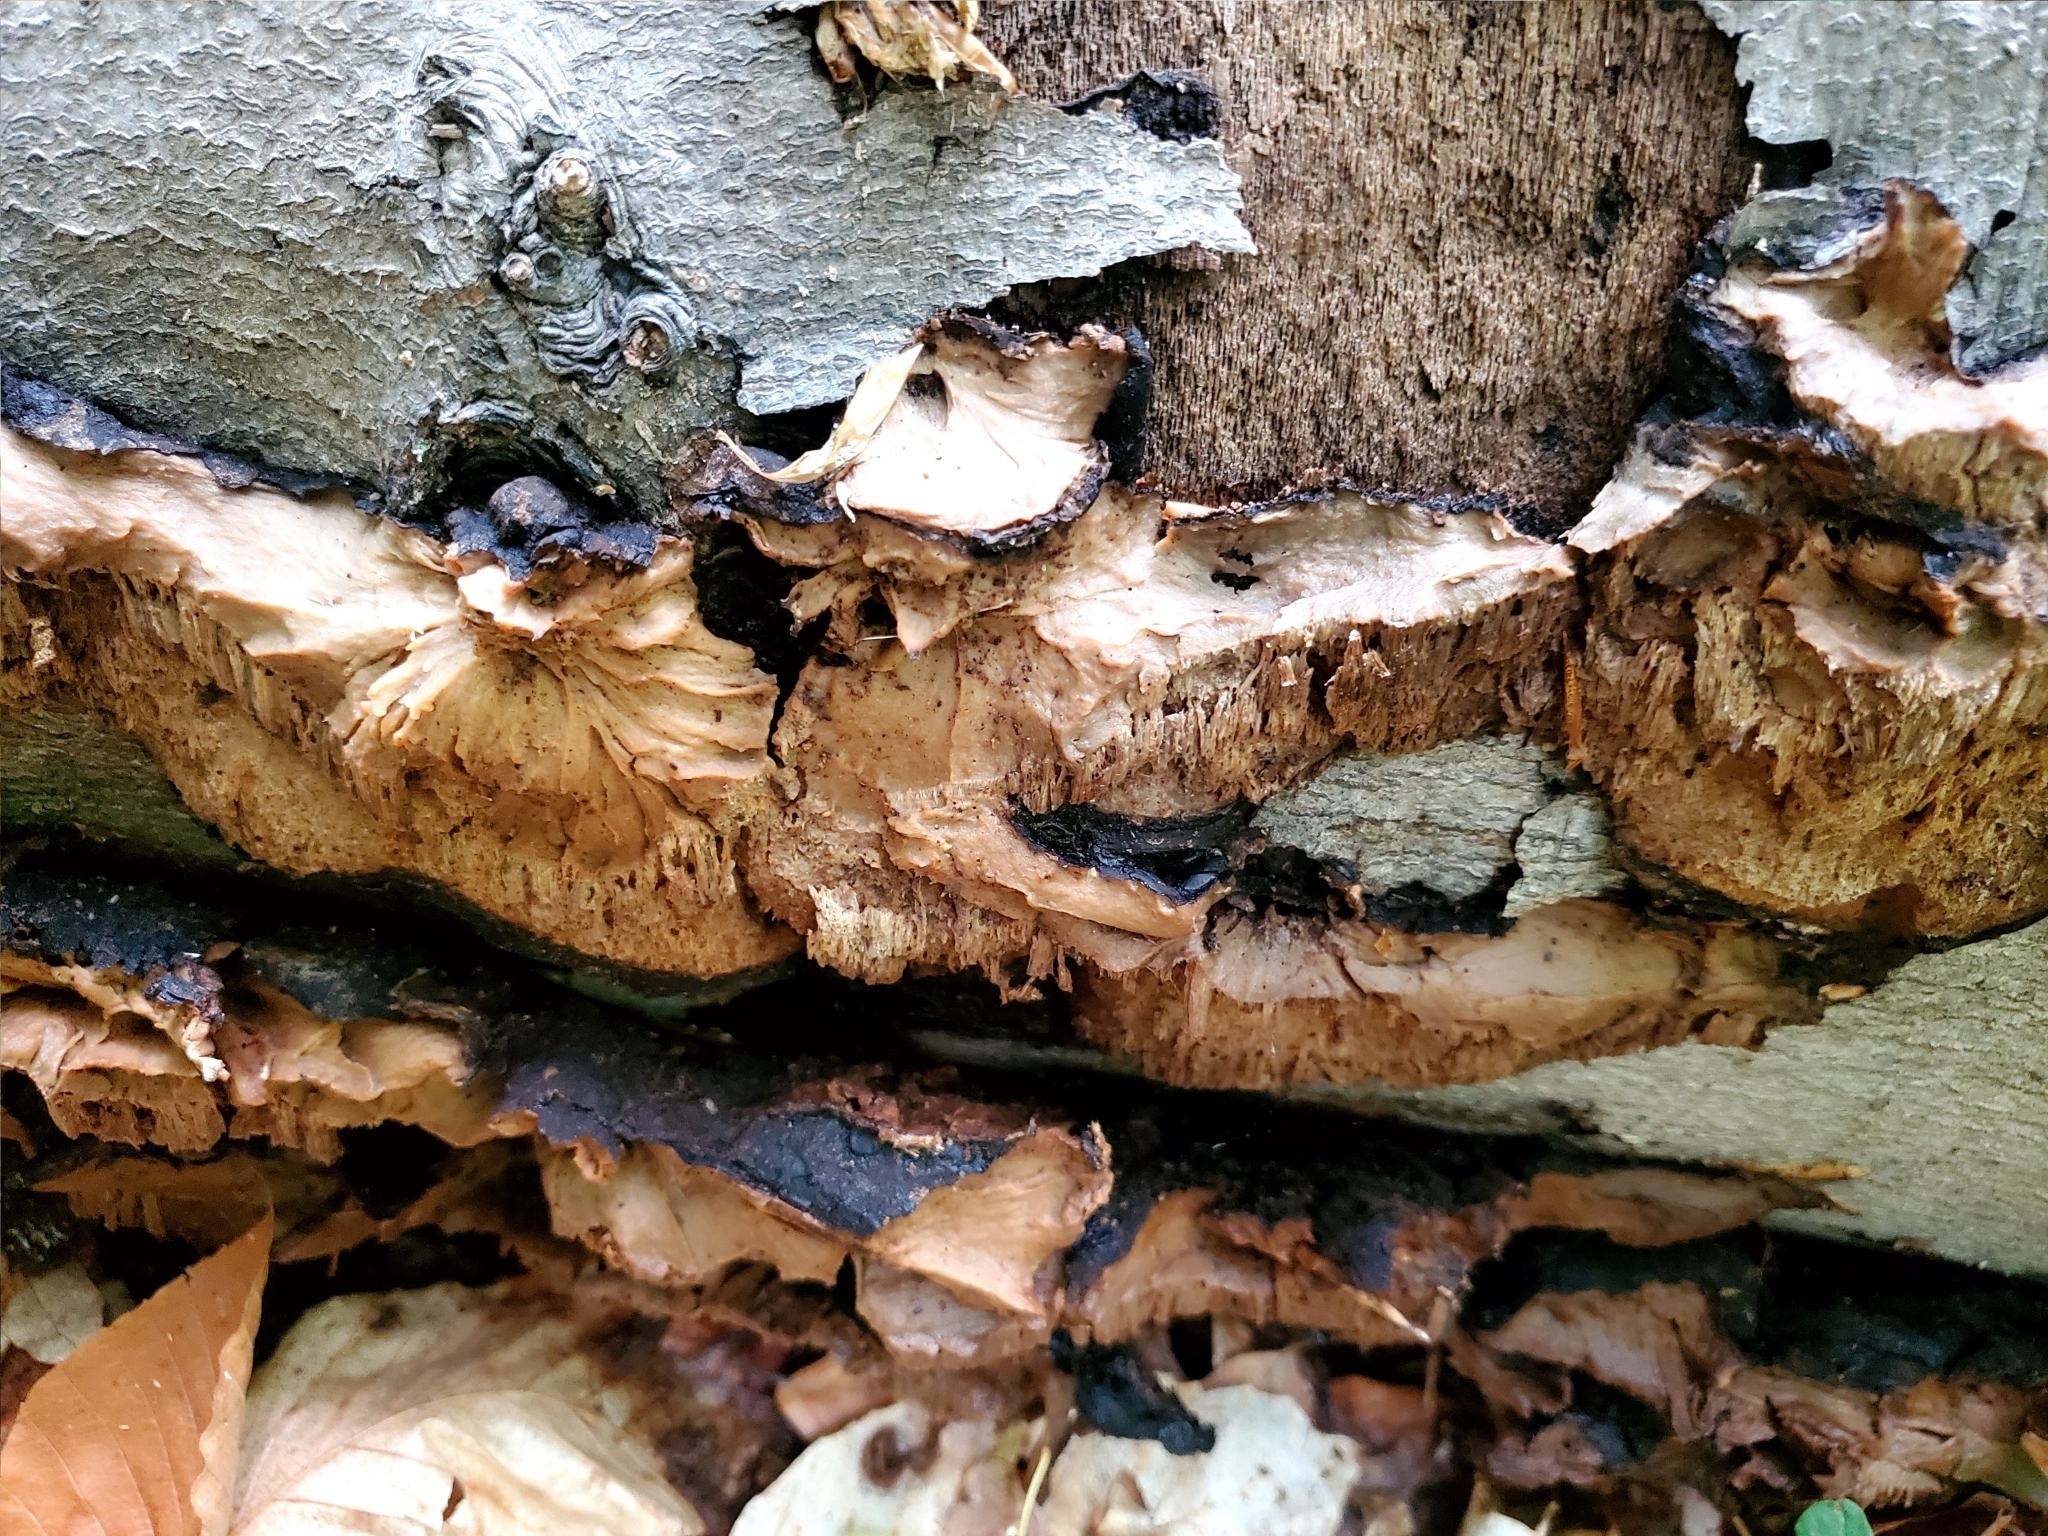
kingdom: Fungi
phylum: Basidiomycota
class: Agaricomycetes
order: Polyporales
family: Ischnodermataceae
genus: Ischnoderma
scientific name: Ischnoderma resinosum
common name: Resinous polypore
